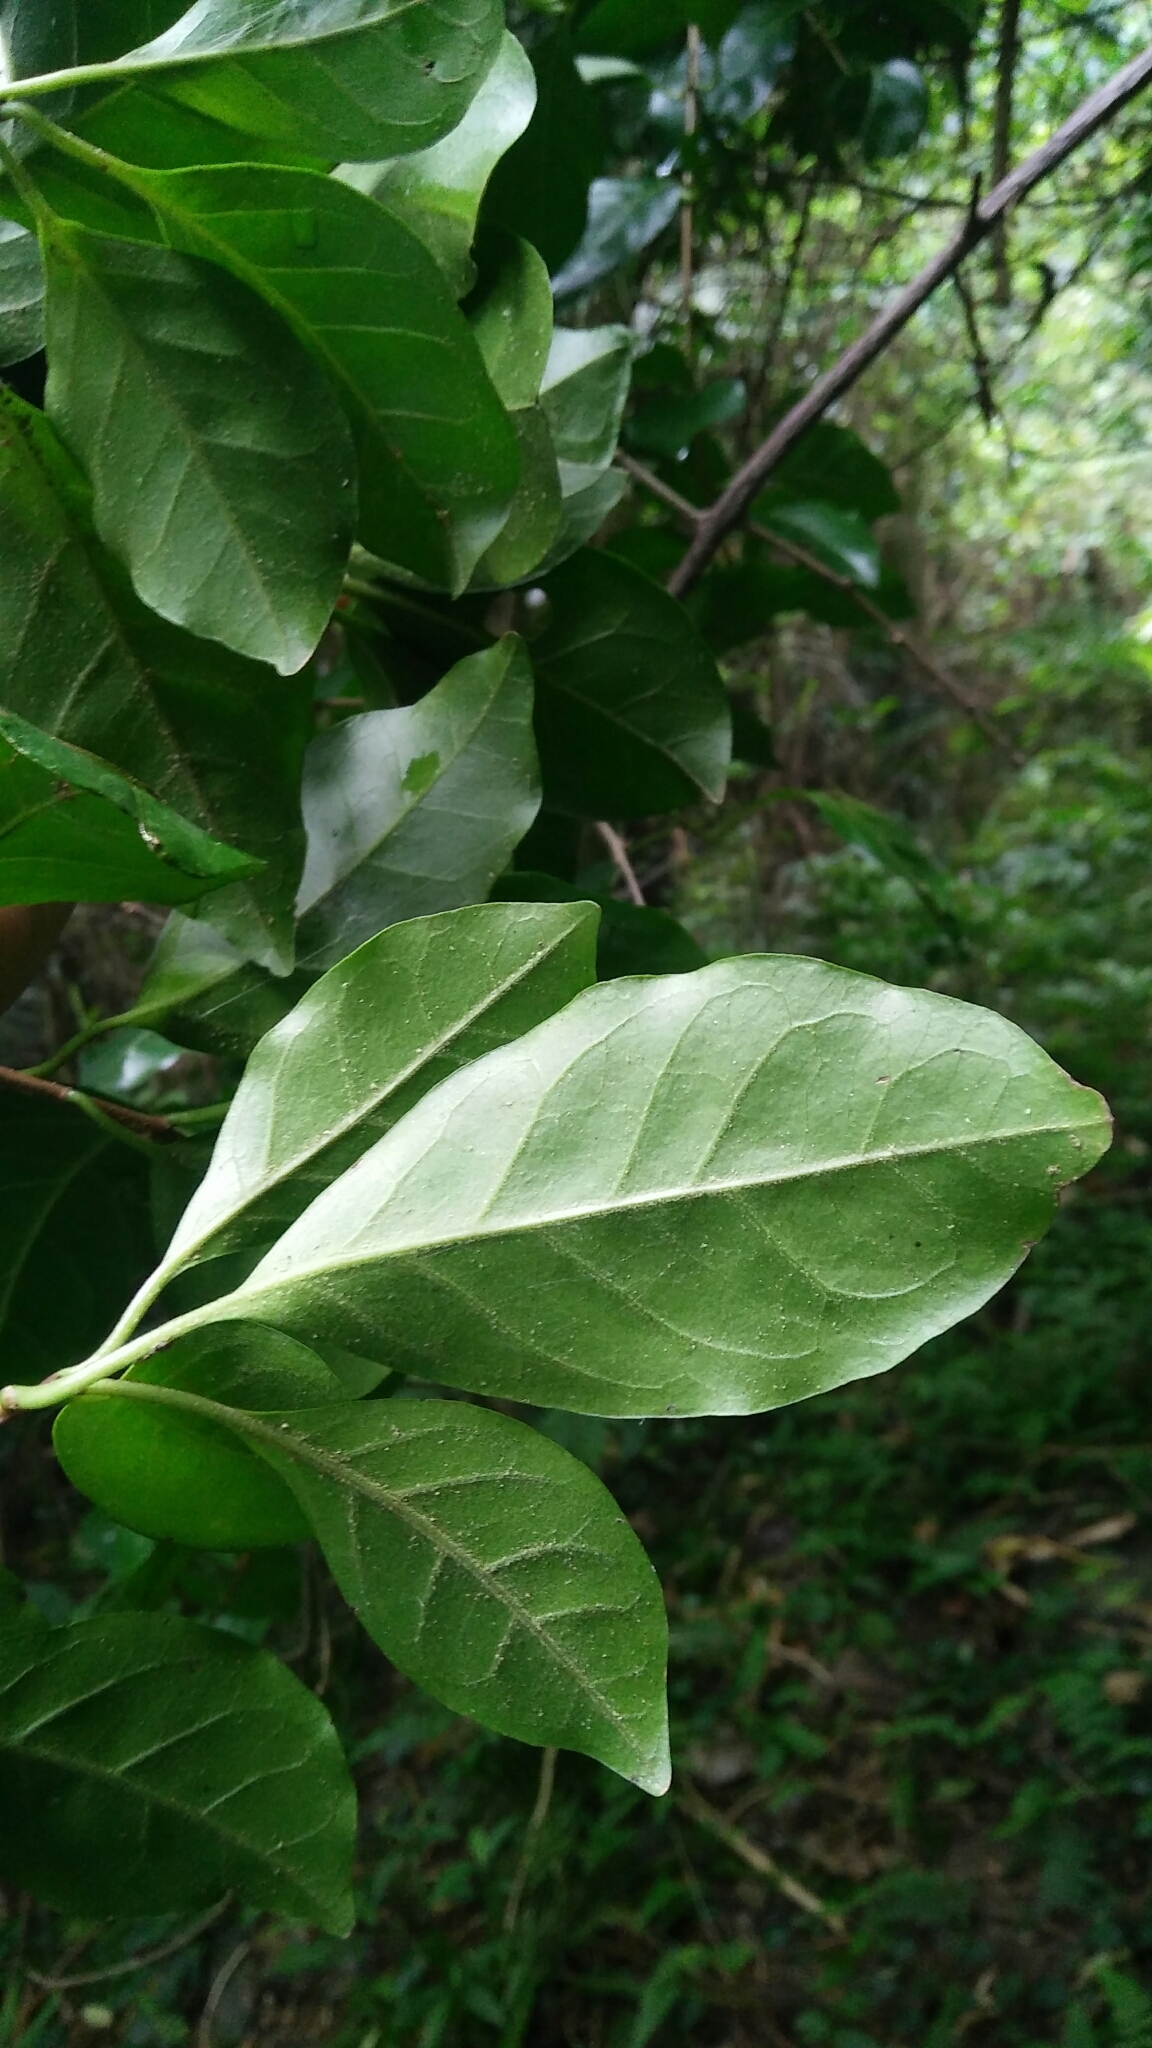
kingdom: Plantae
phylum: Tracheophyta
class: Magnoliopsida
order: Caryophyllales
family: Nyctaginaceae
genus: Pisonia
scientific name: Pisonia aculeata
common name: Cockspur vine
